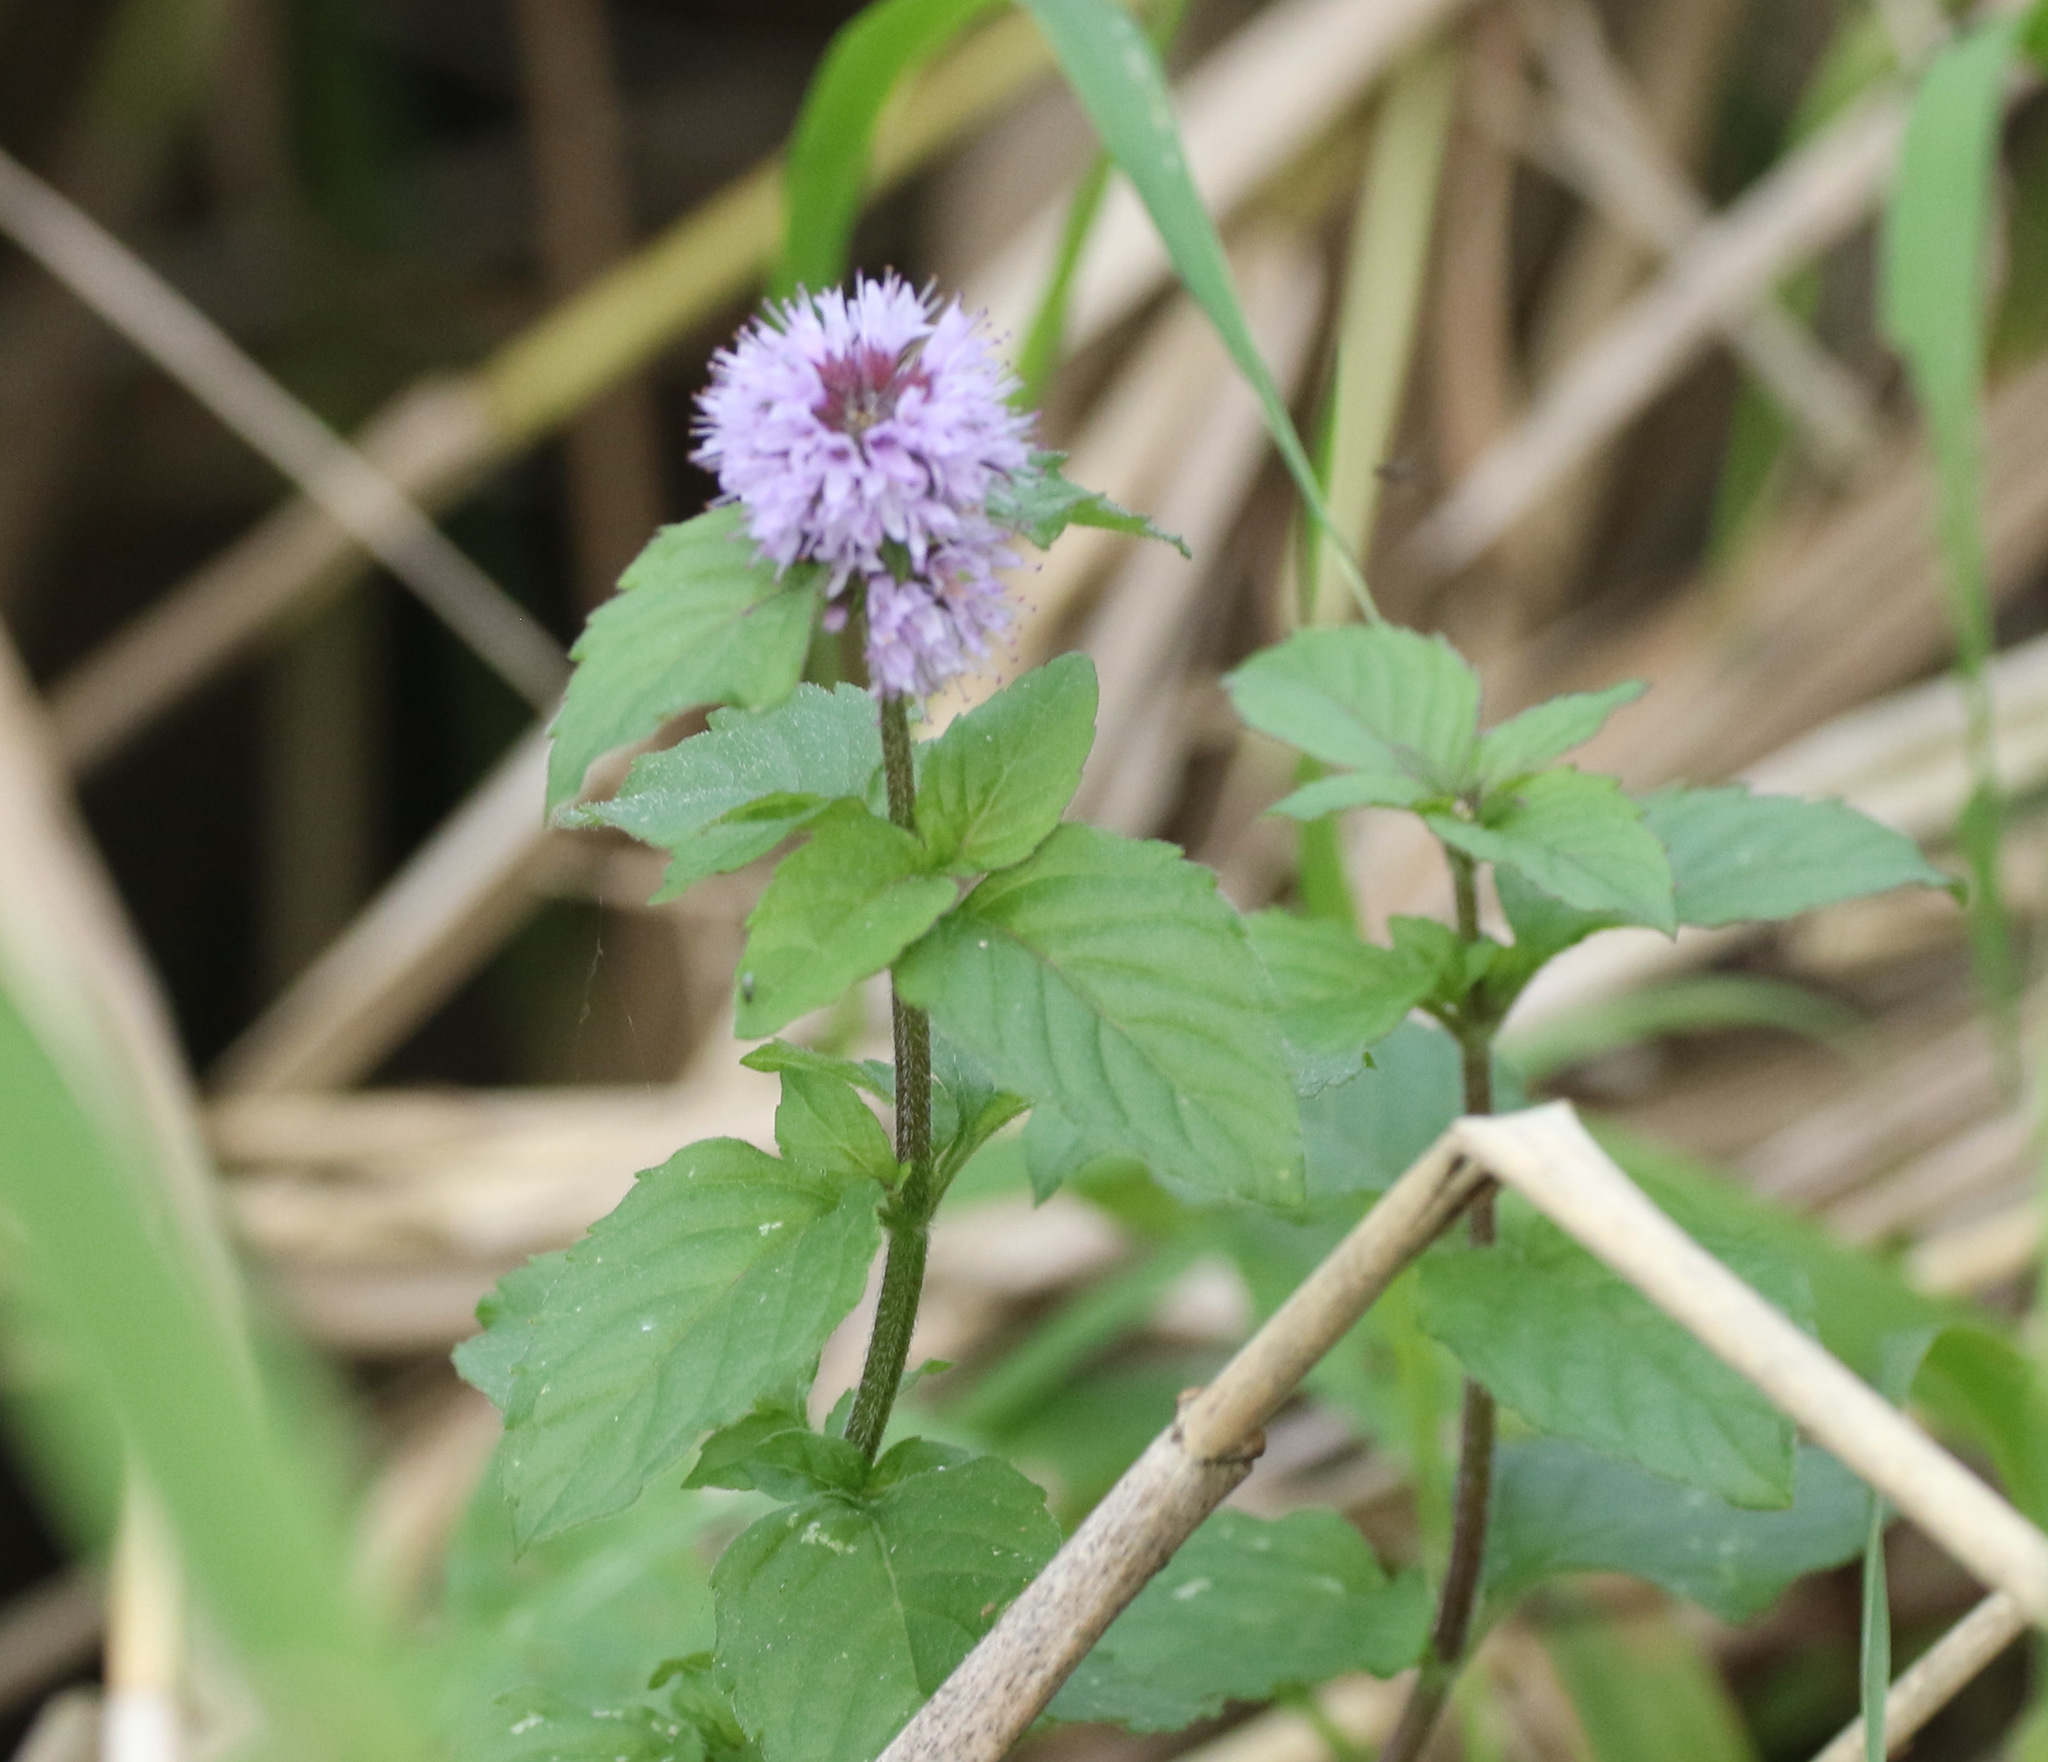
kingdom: Plantae
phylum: Tracheophyta
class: Magnoliopsida
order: Lamiales
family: Lamiaceae
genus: Mentha
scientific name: Mentha aquatica
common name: Water mint
